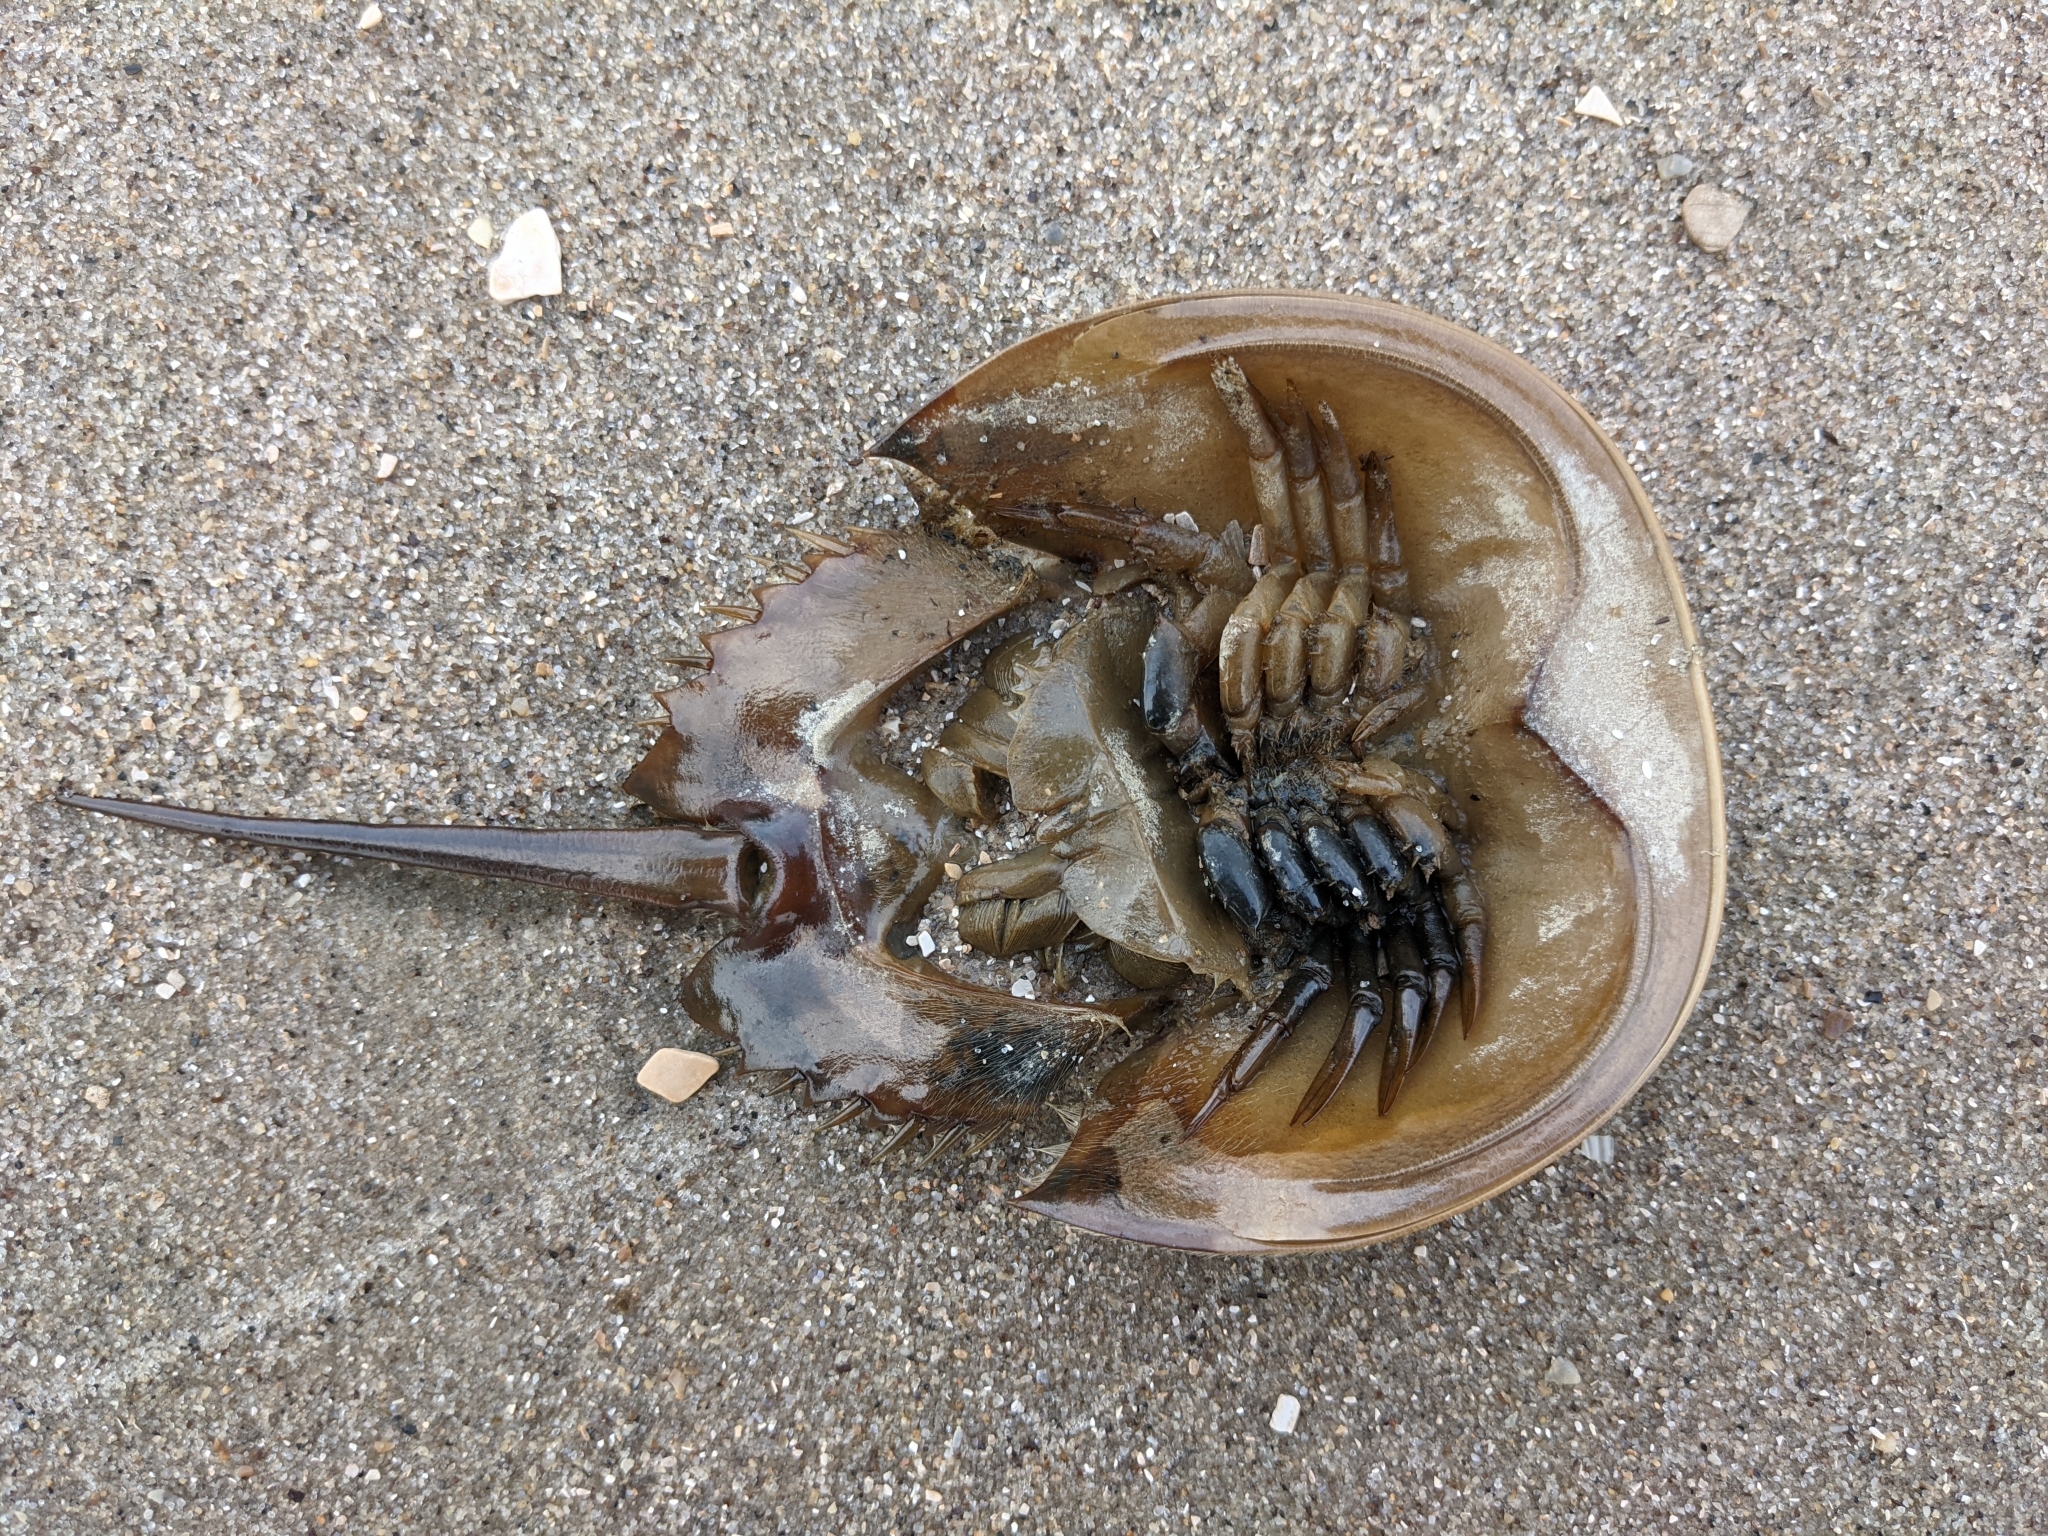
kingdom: Animalia
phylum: Arthropoda
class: Merostomata
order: Xiphosurida
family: Limulidae
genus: Limulus
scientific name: Limulus polyphemus
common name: Horseshoe crab
